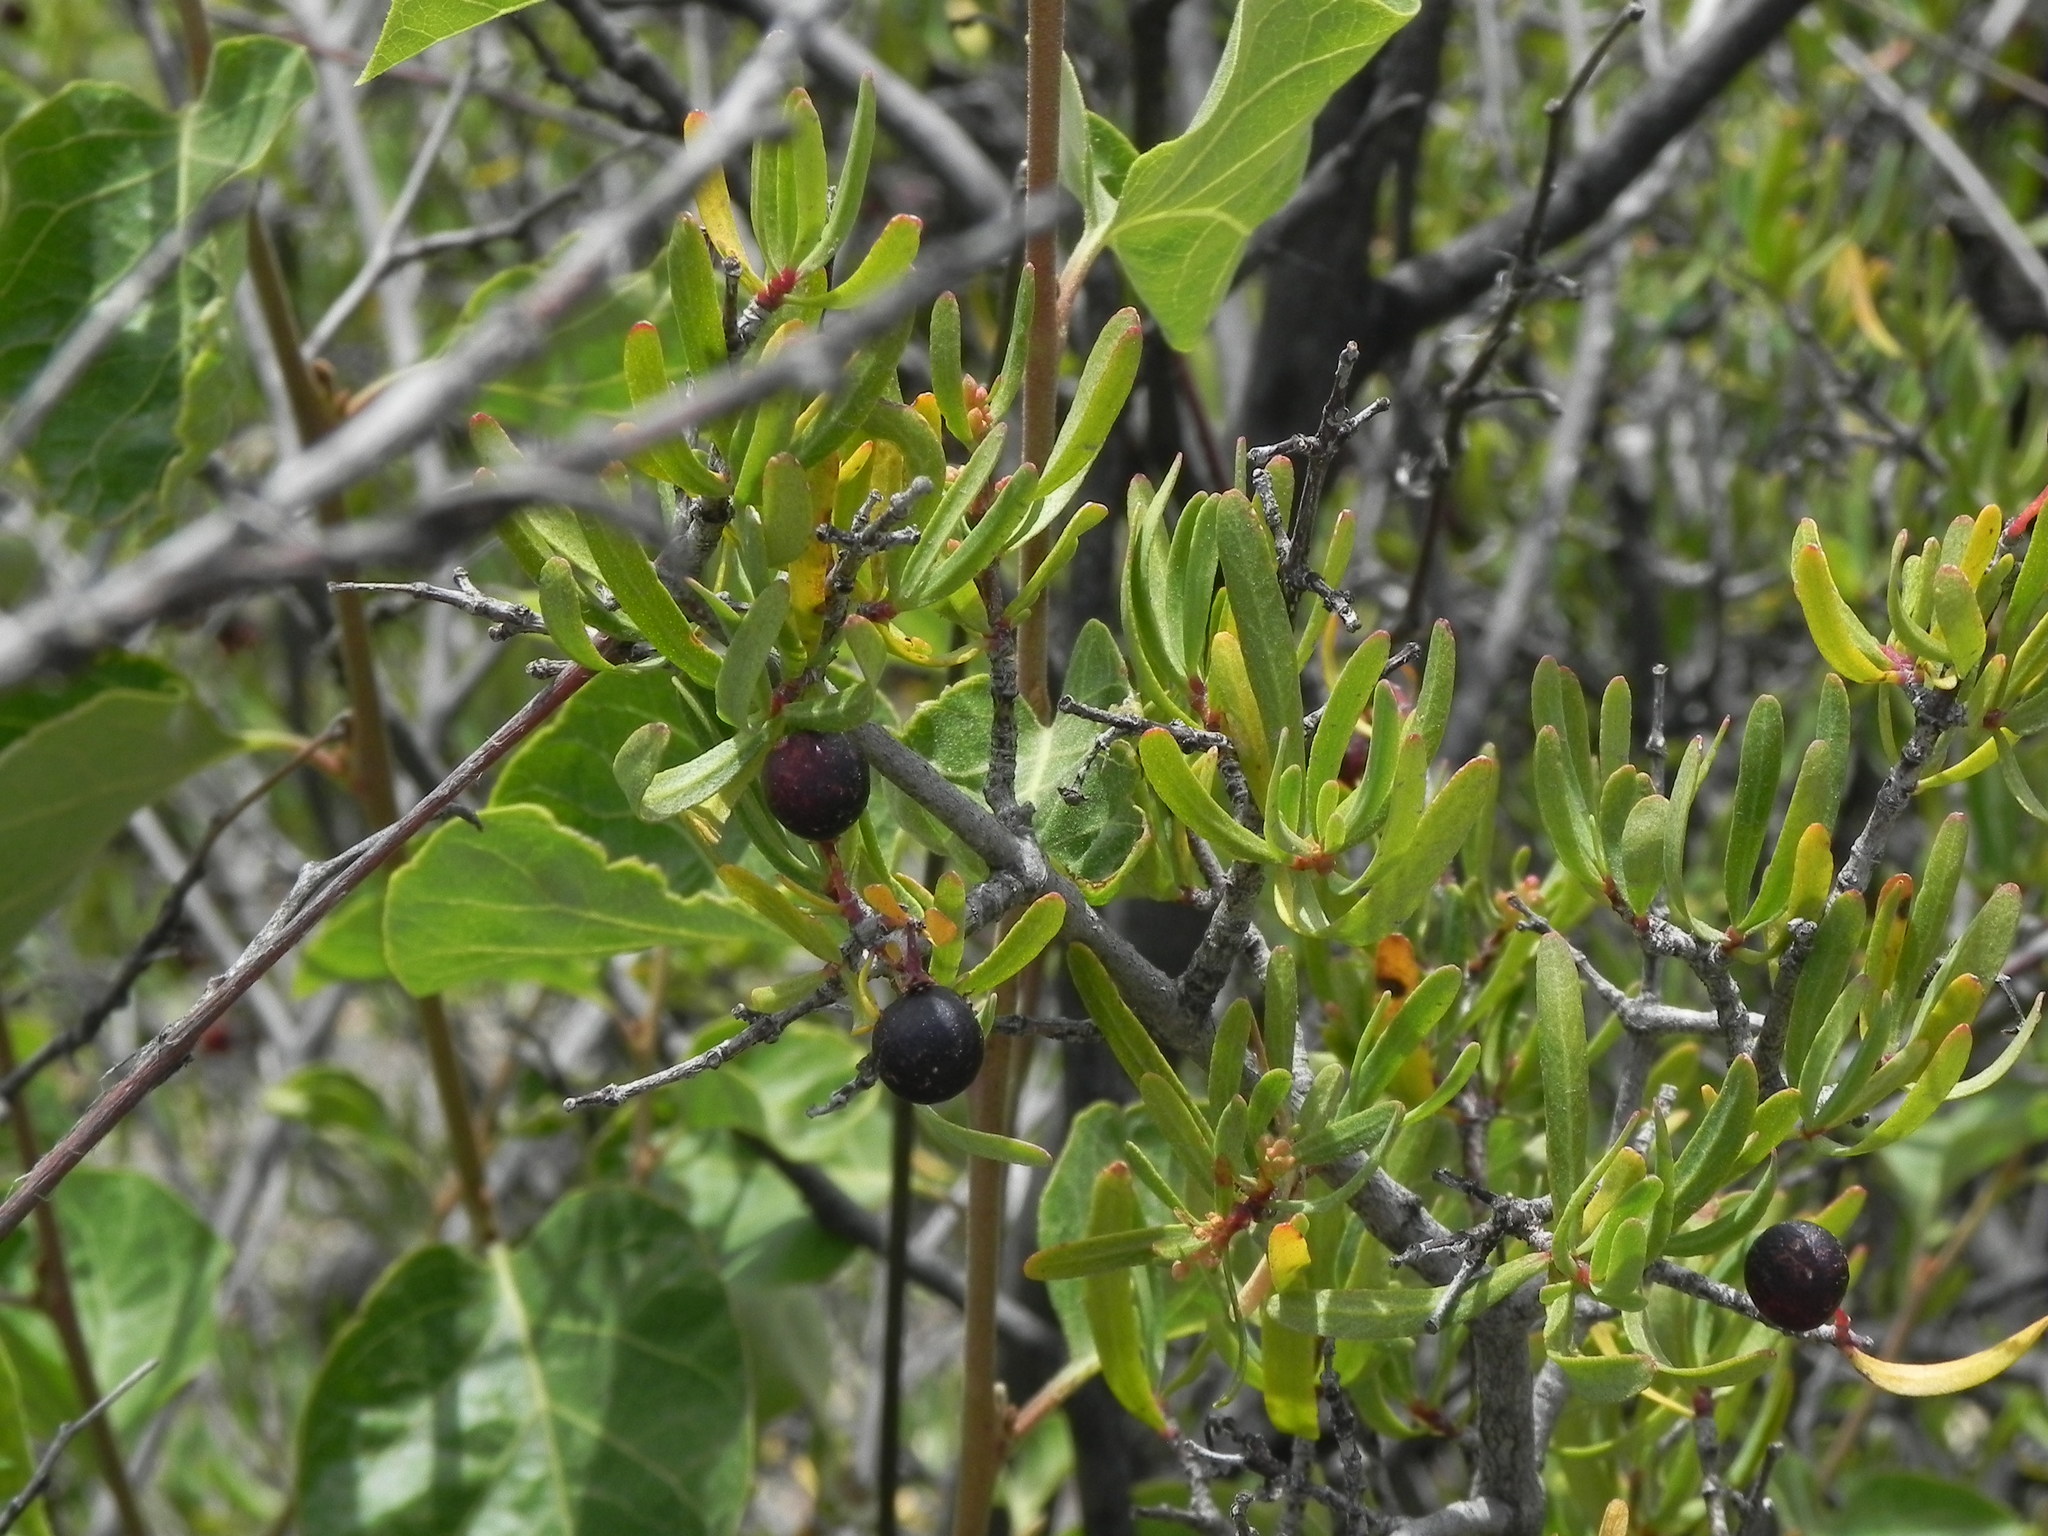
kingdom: Plantae
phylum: Tracheophyta
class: Magnoliopsida
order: Sapindales
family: Rutaceae
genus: Cneoridium
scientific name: Cneoridium dumosum
